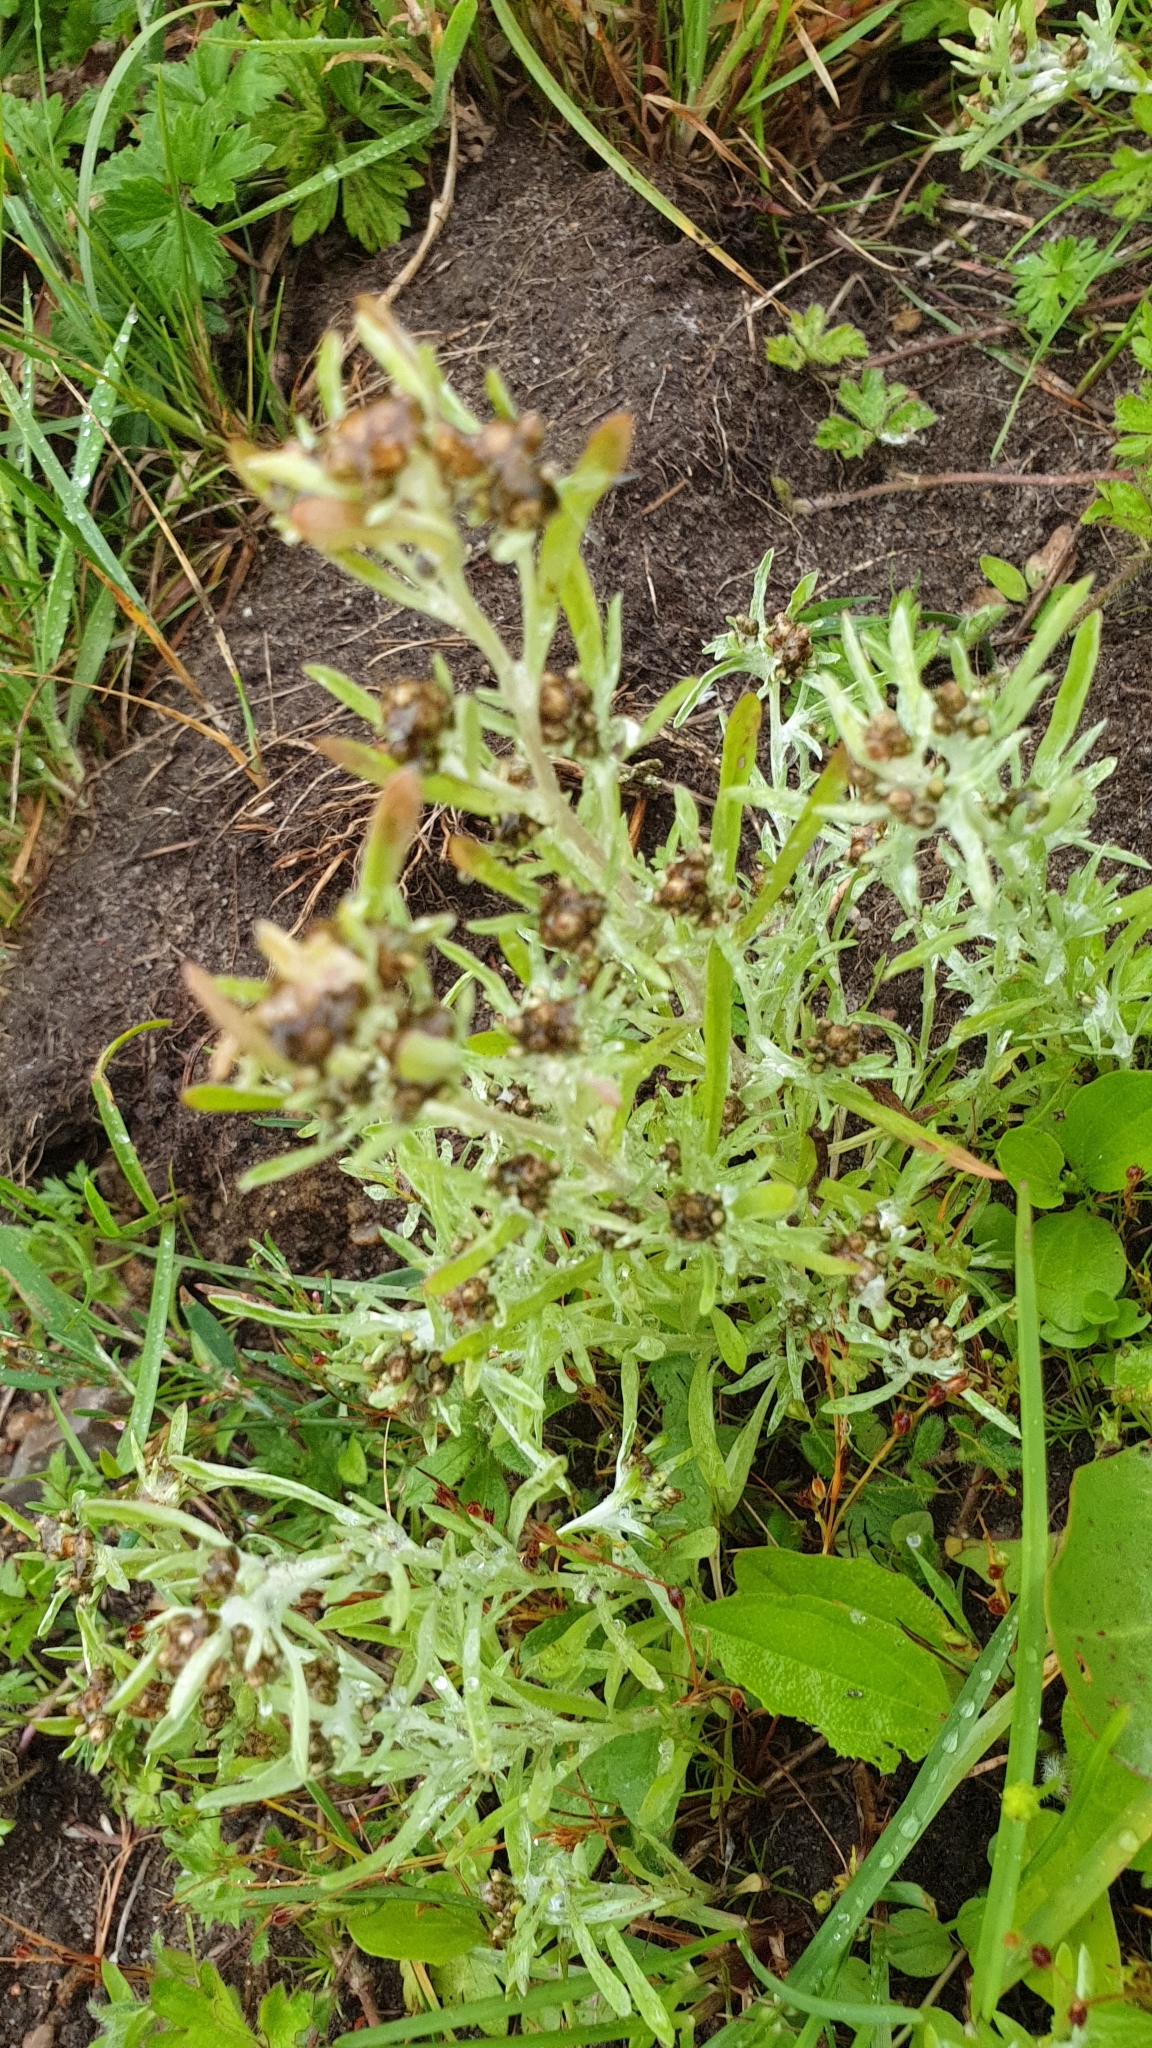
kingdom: Plantae
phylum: Tracheophyta
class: Magnoliopsida
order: Asterales
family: Asteraceae
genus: Gnaphalium
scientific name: Gnaphalium uliginosum
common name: Marsh cudweed
